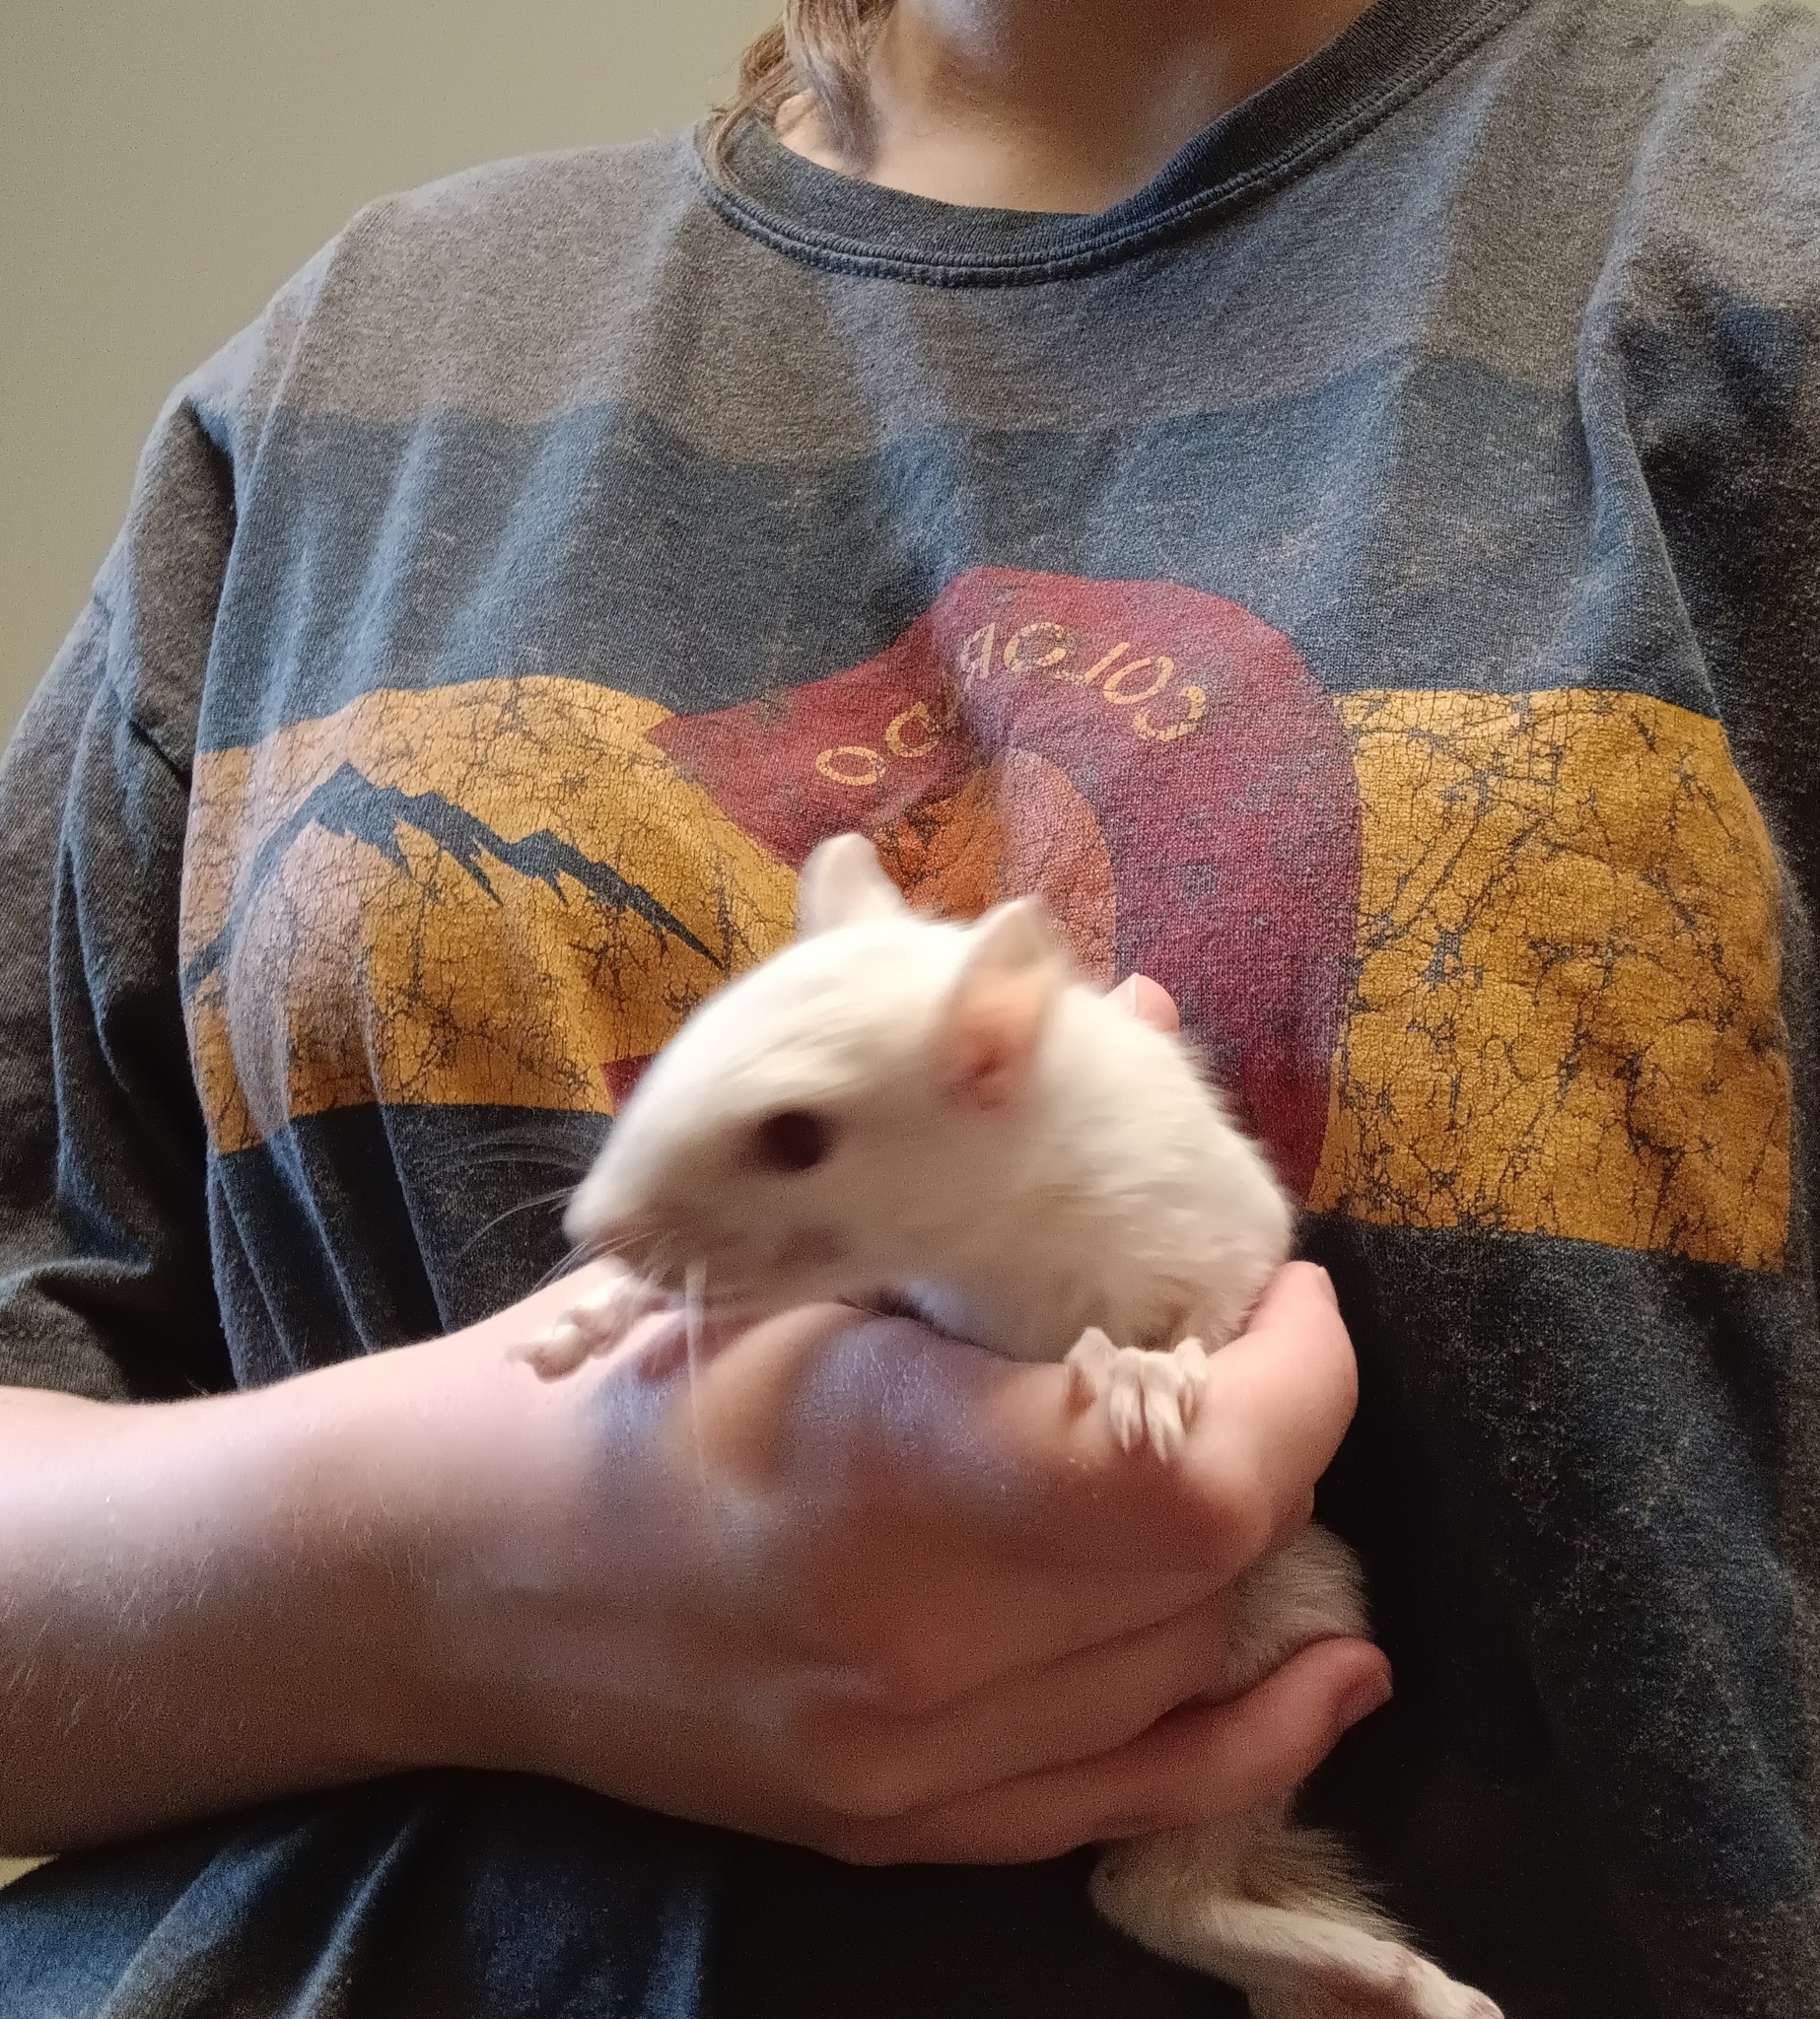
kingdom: Animalia
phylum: Chordata
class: Mammalia
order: Rodentia
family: Sciuridae
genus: Sciurus
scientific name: Sciurus carolinensis
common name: Eastern gray squirrel
